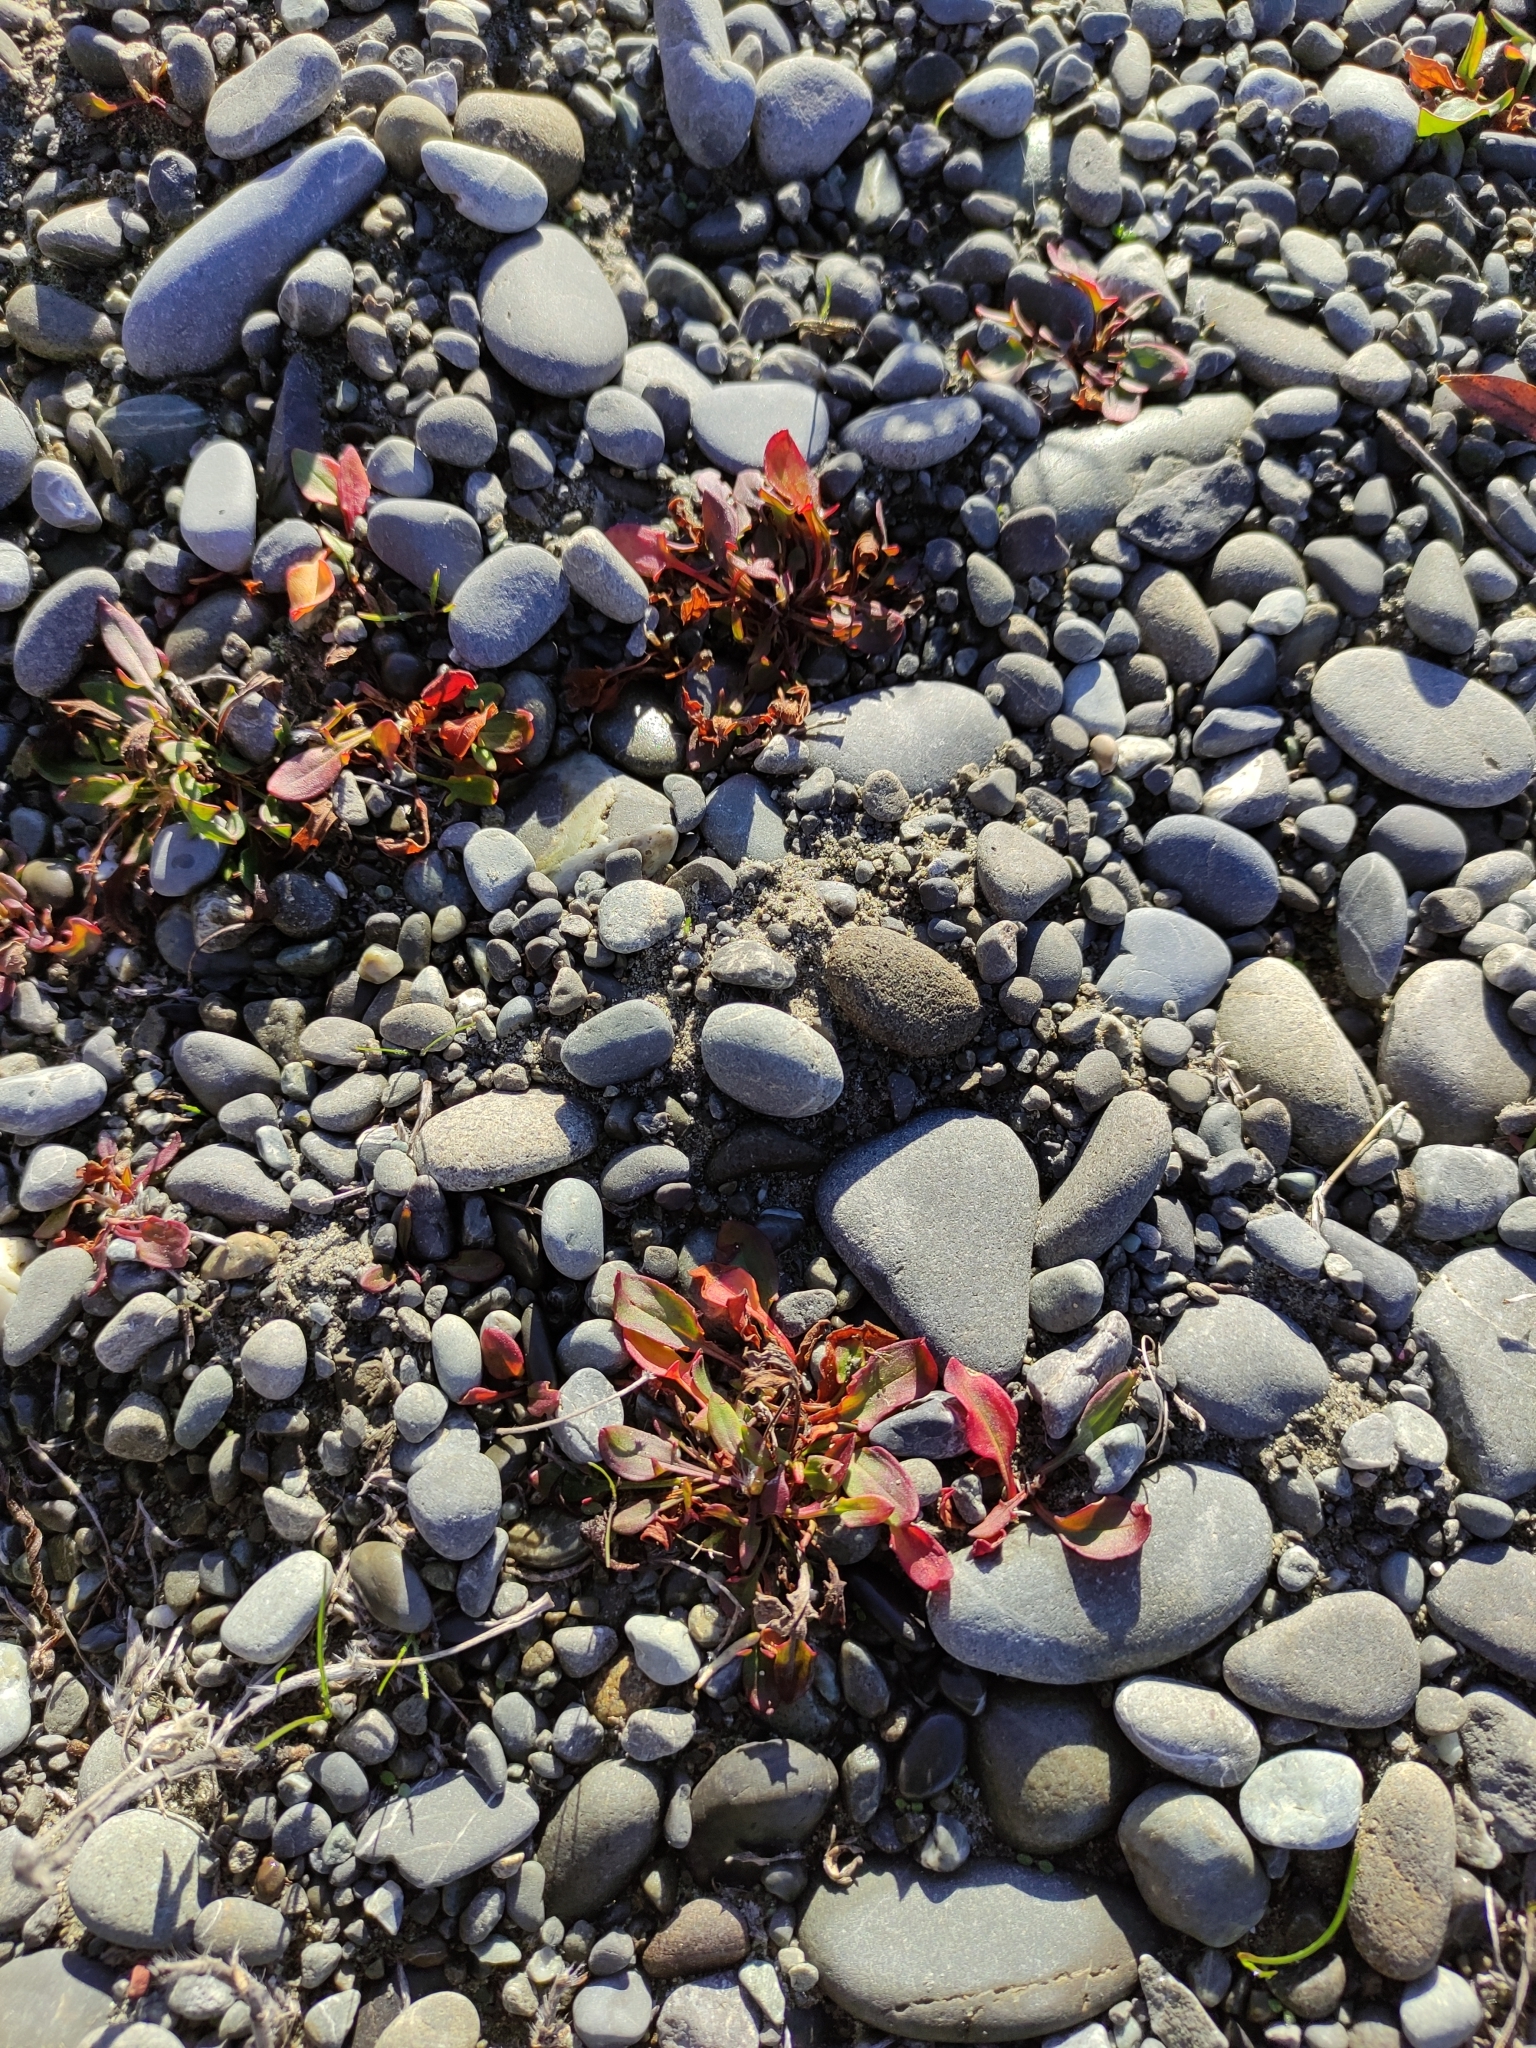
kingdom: Plantae
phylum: Tracheophyta
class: Magnoliopsida
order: Caryophyllales
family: Polygonaceae
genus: Rumex
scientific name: Rumex acetosella
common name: Common sheep sorrel
